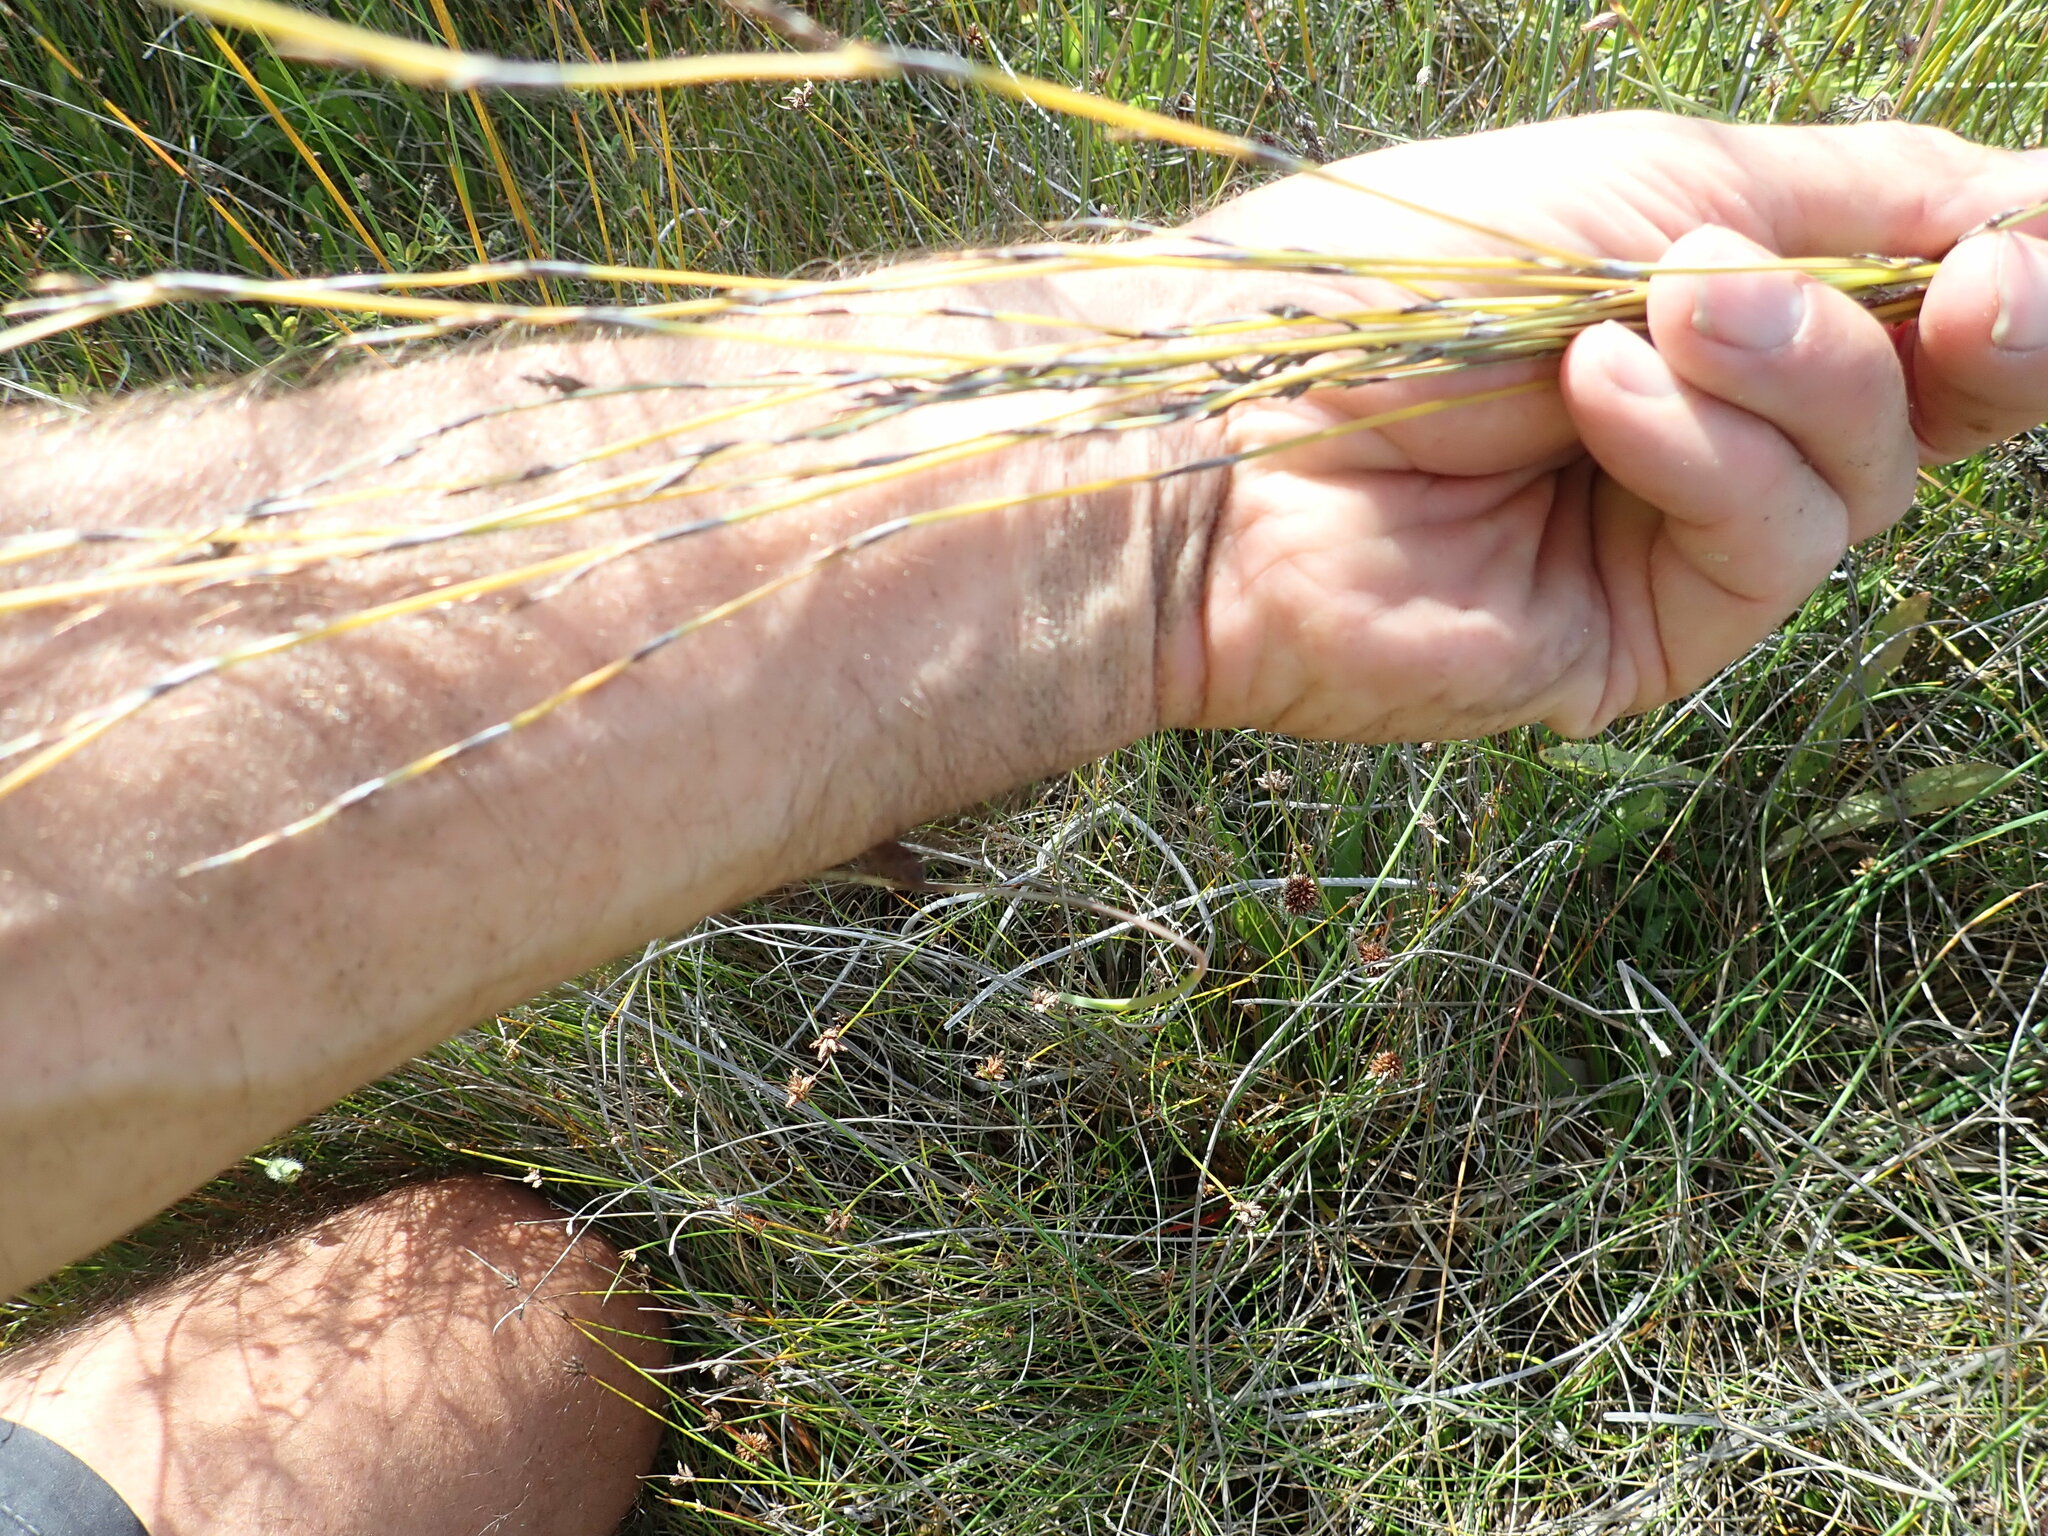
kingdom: Plantae
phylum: Tracheophyta
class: Liliopsida
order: Poales
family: Restionaceae
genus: Apodasmia
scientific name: Apodasmia similis
